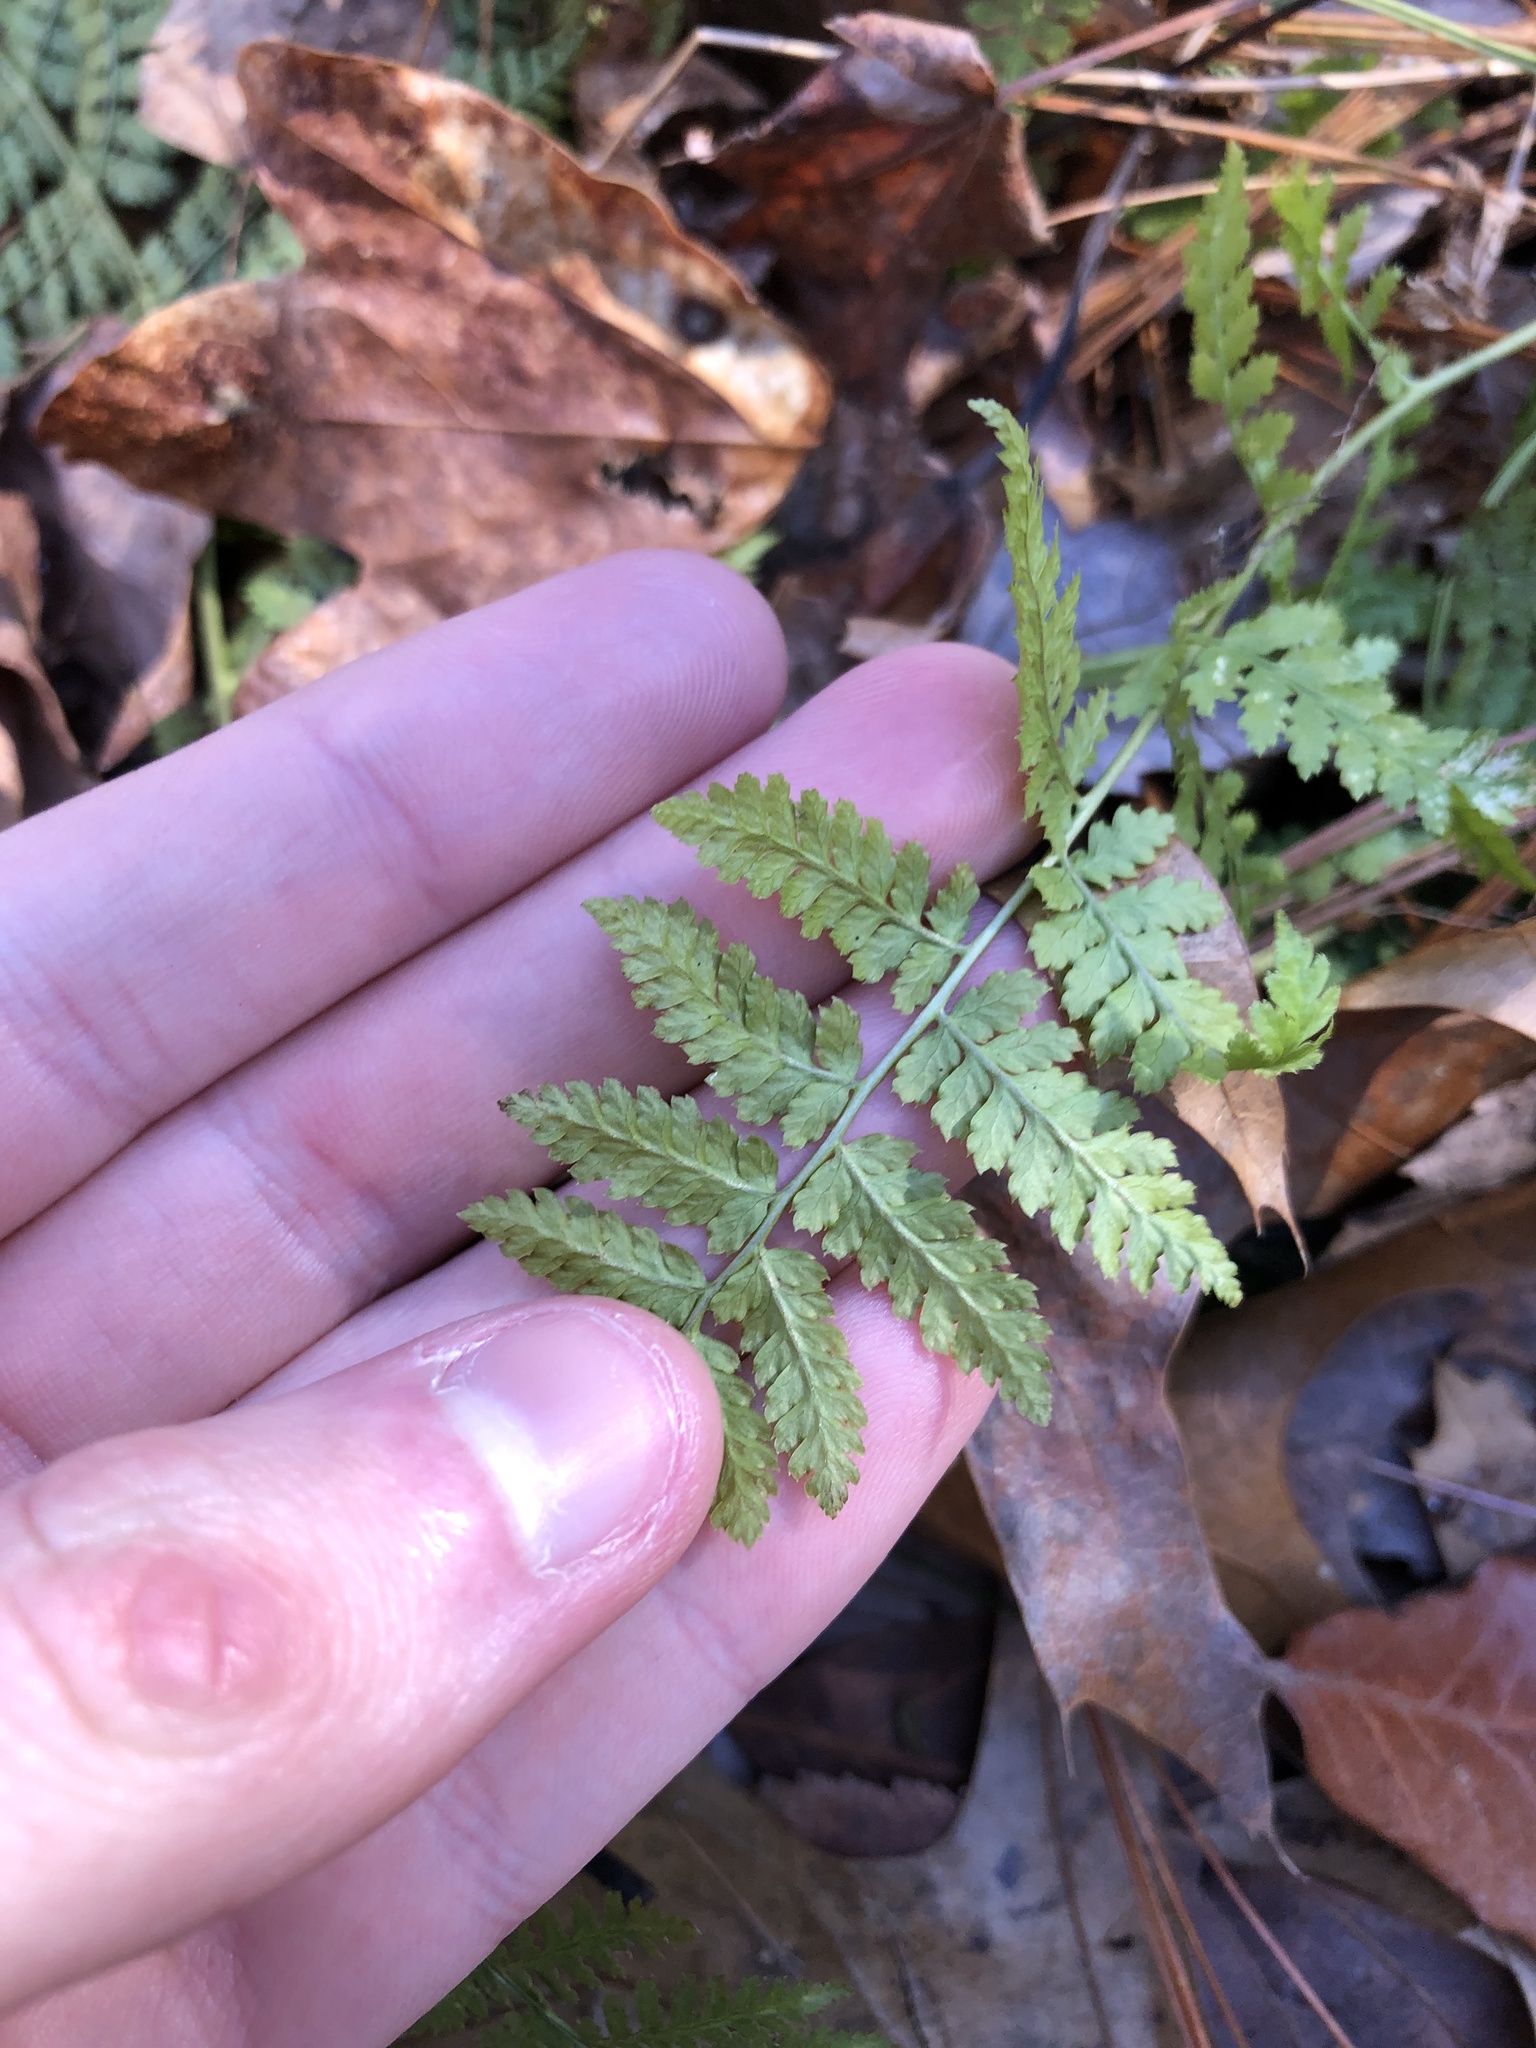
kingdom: Plantae
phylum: Tracheophyta
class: Polypodiopsida
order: Polypodiales
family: Dryopteridaceae
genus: Dryopteris
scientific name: Dryopteris intermedia
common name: Evergreen wood fern
